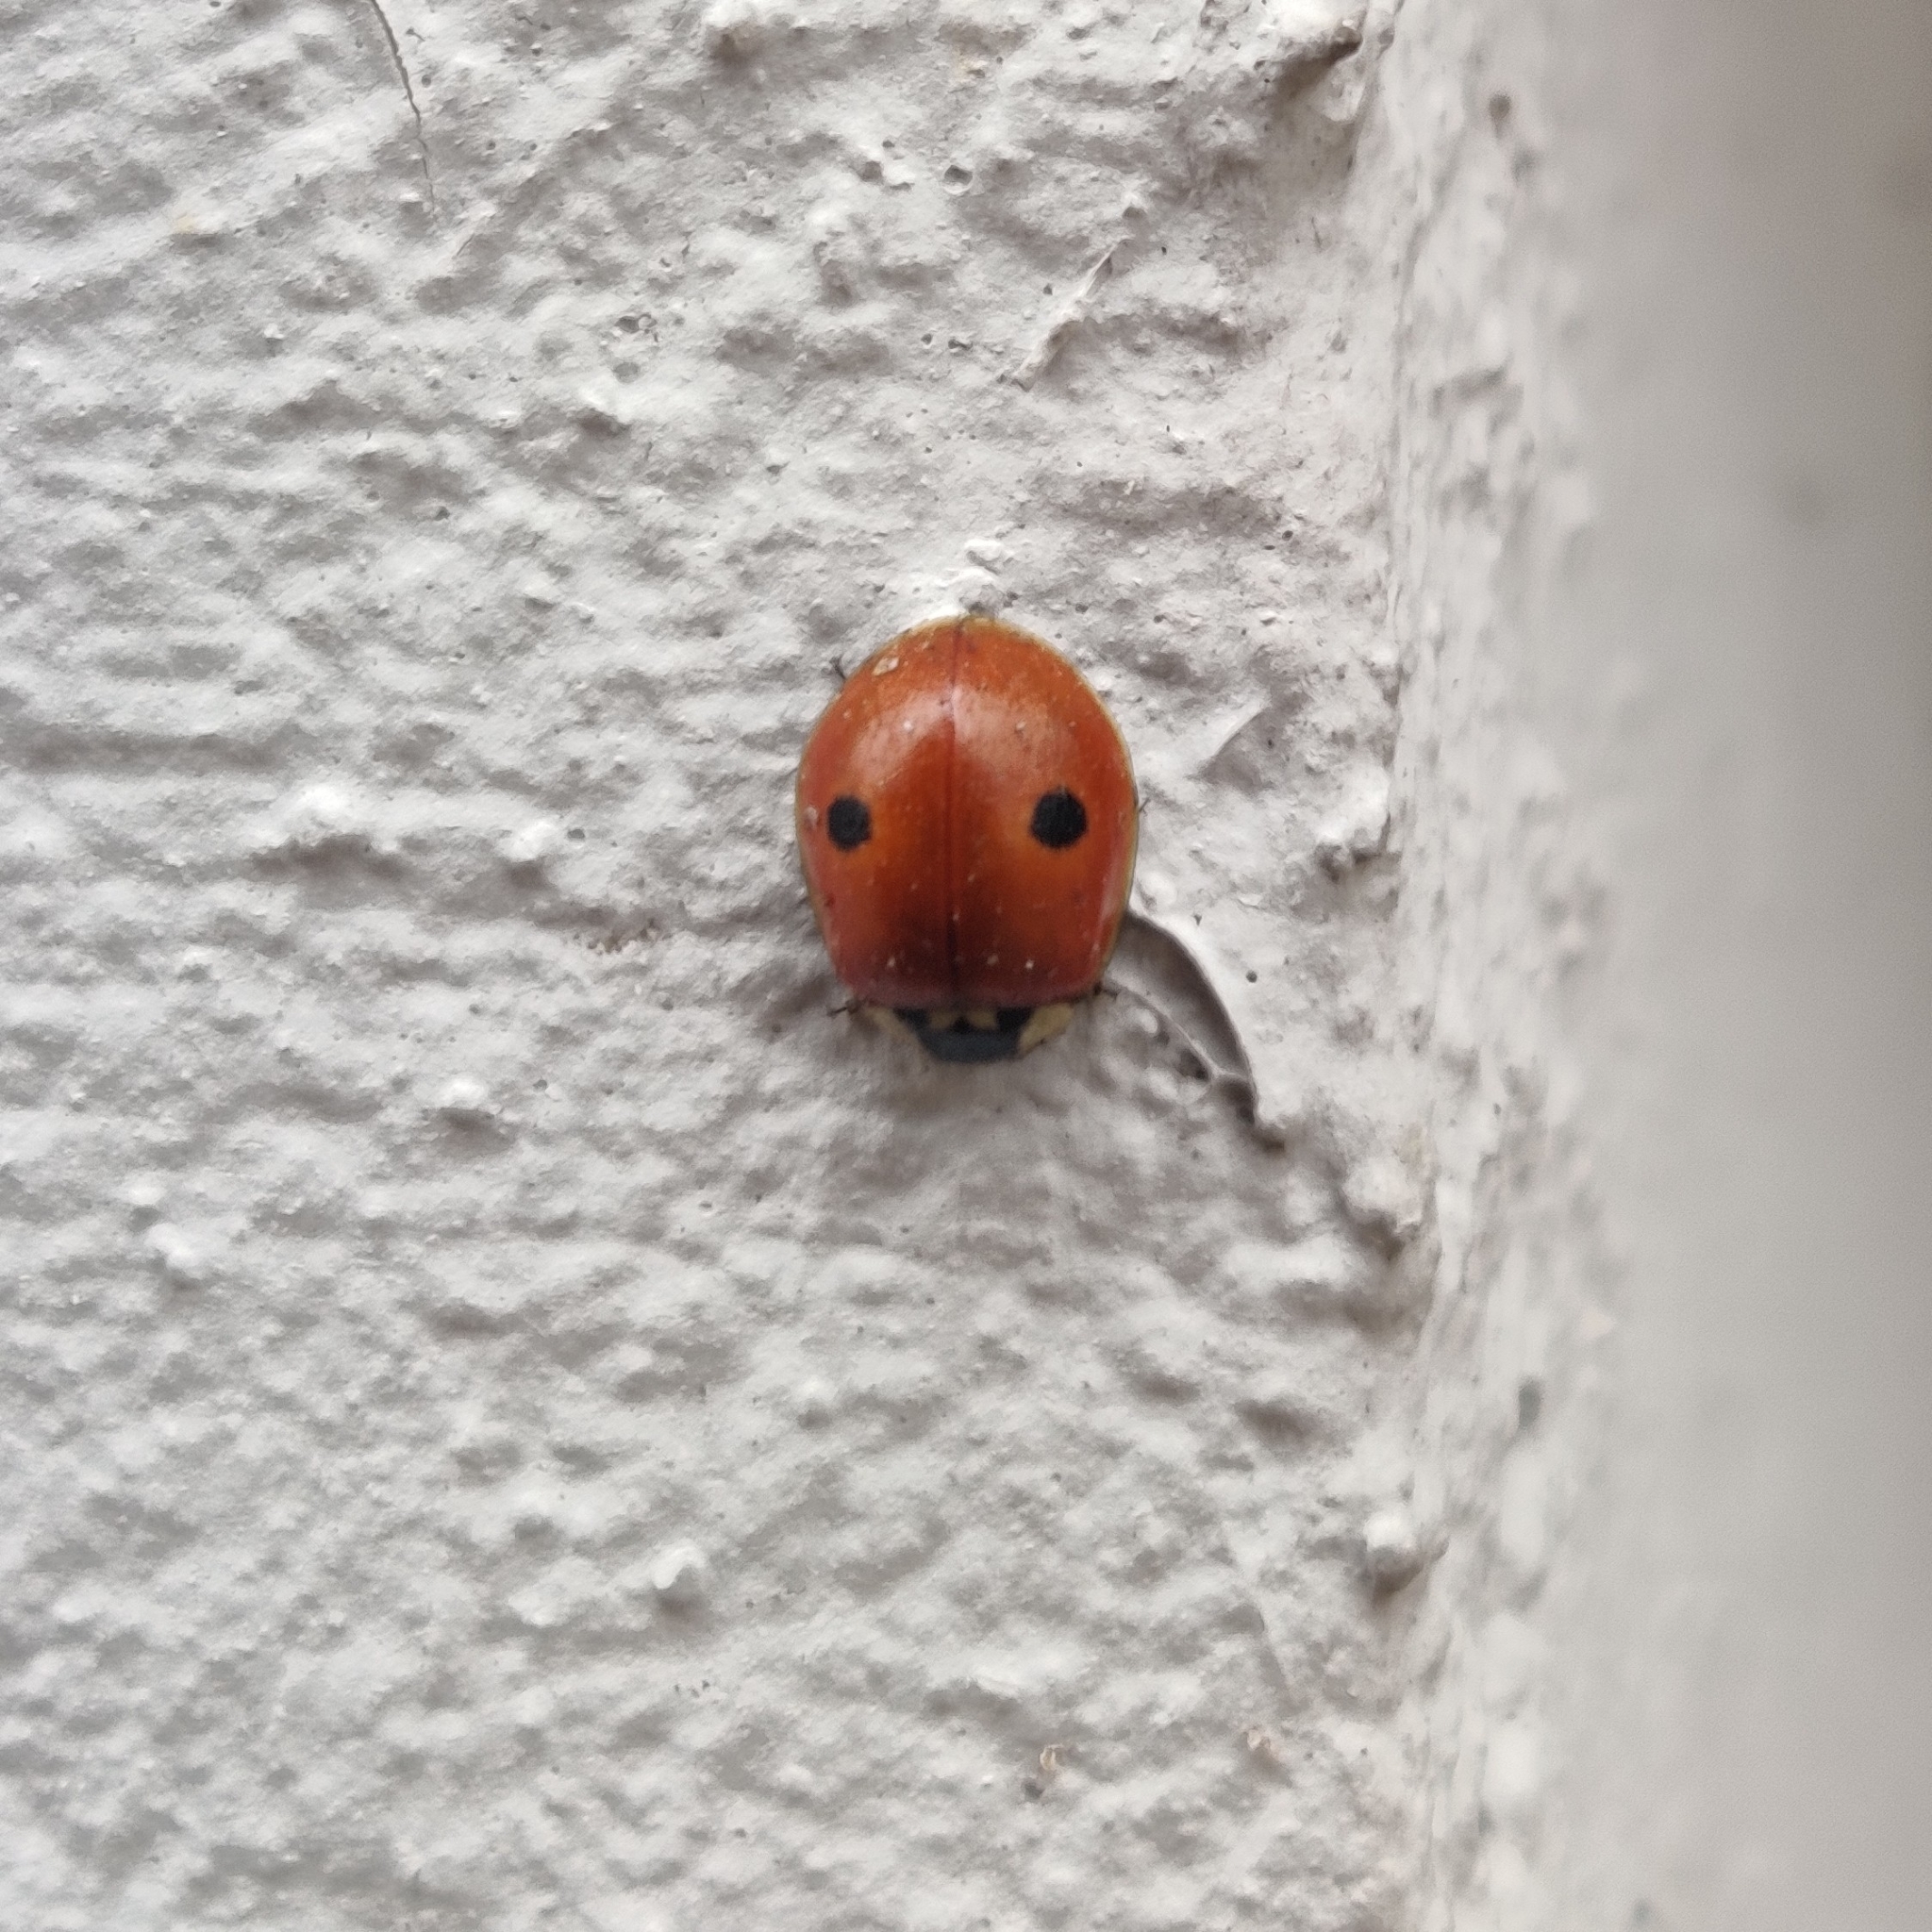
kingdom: Animalia
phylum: Arthropoda
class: Insecta
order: Coleoptera
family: Coccinellidae
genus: Adalia
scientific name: Adalia bipunctata
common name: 2-spot ladybird
